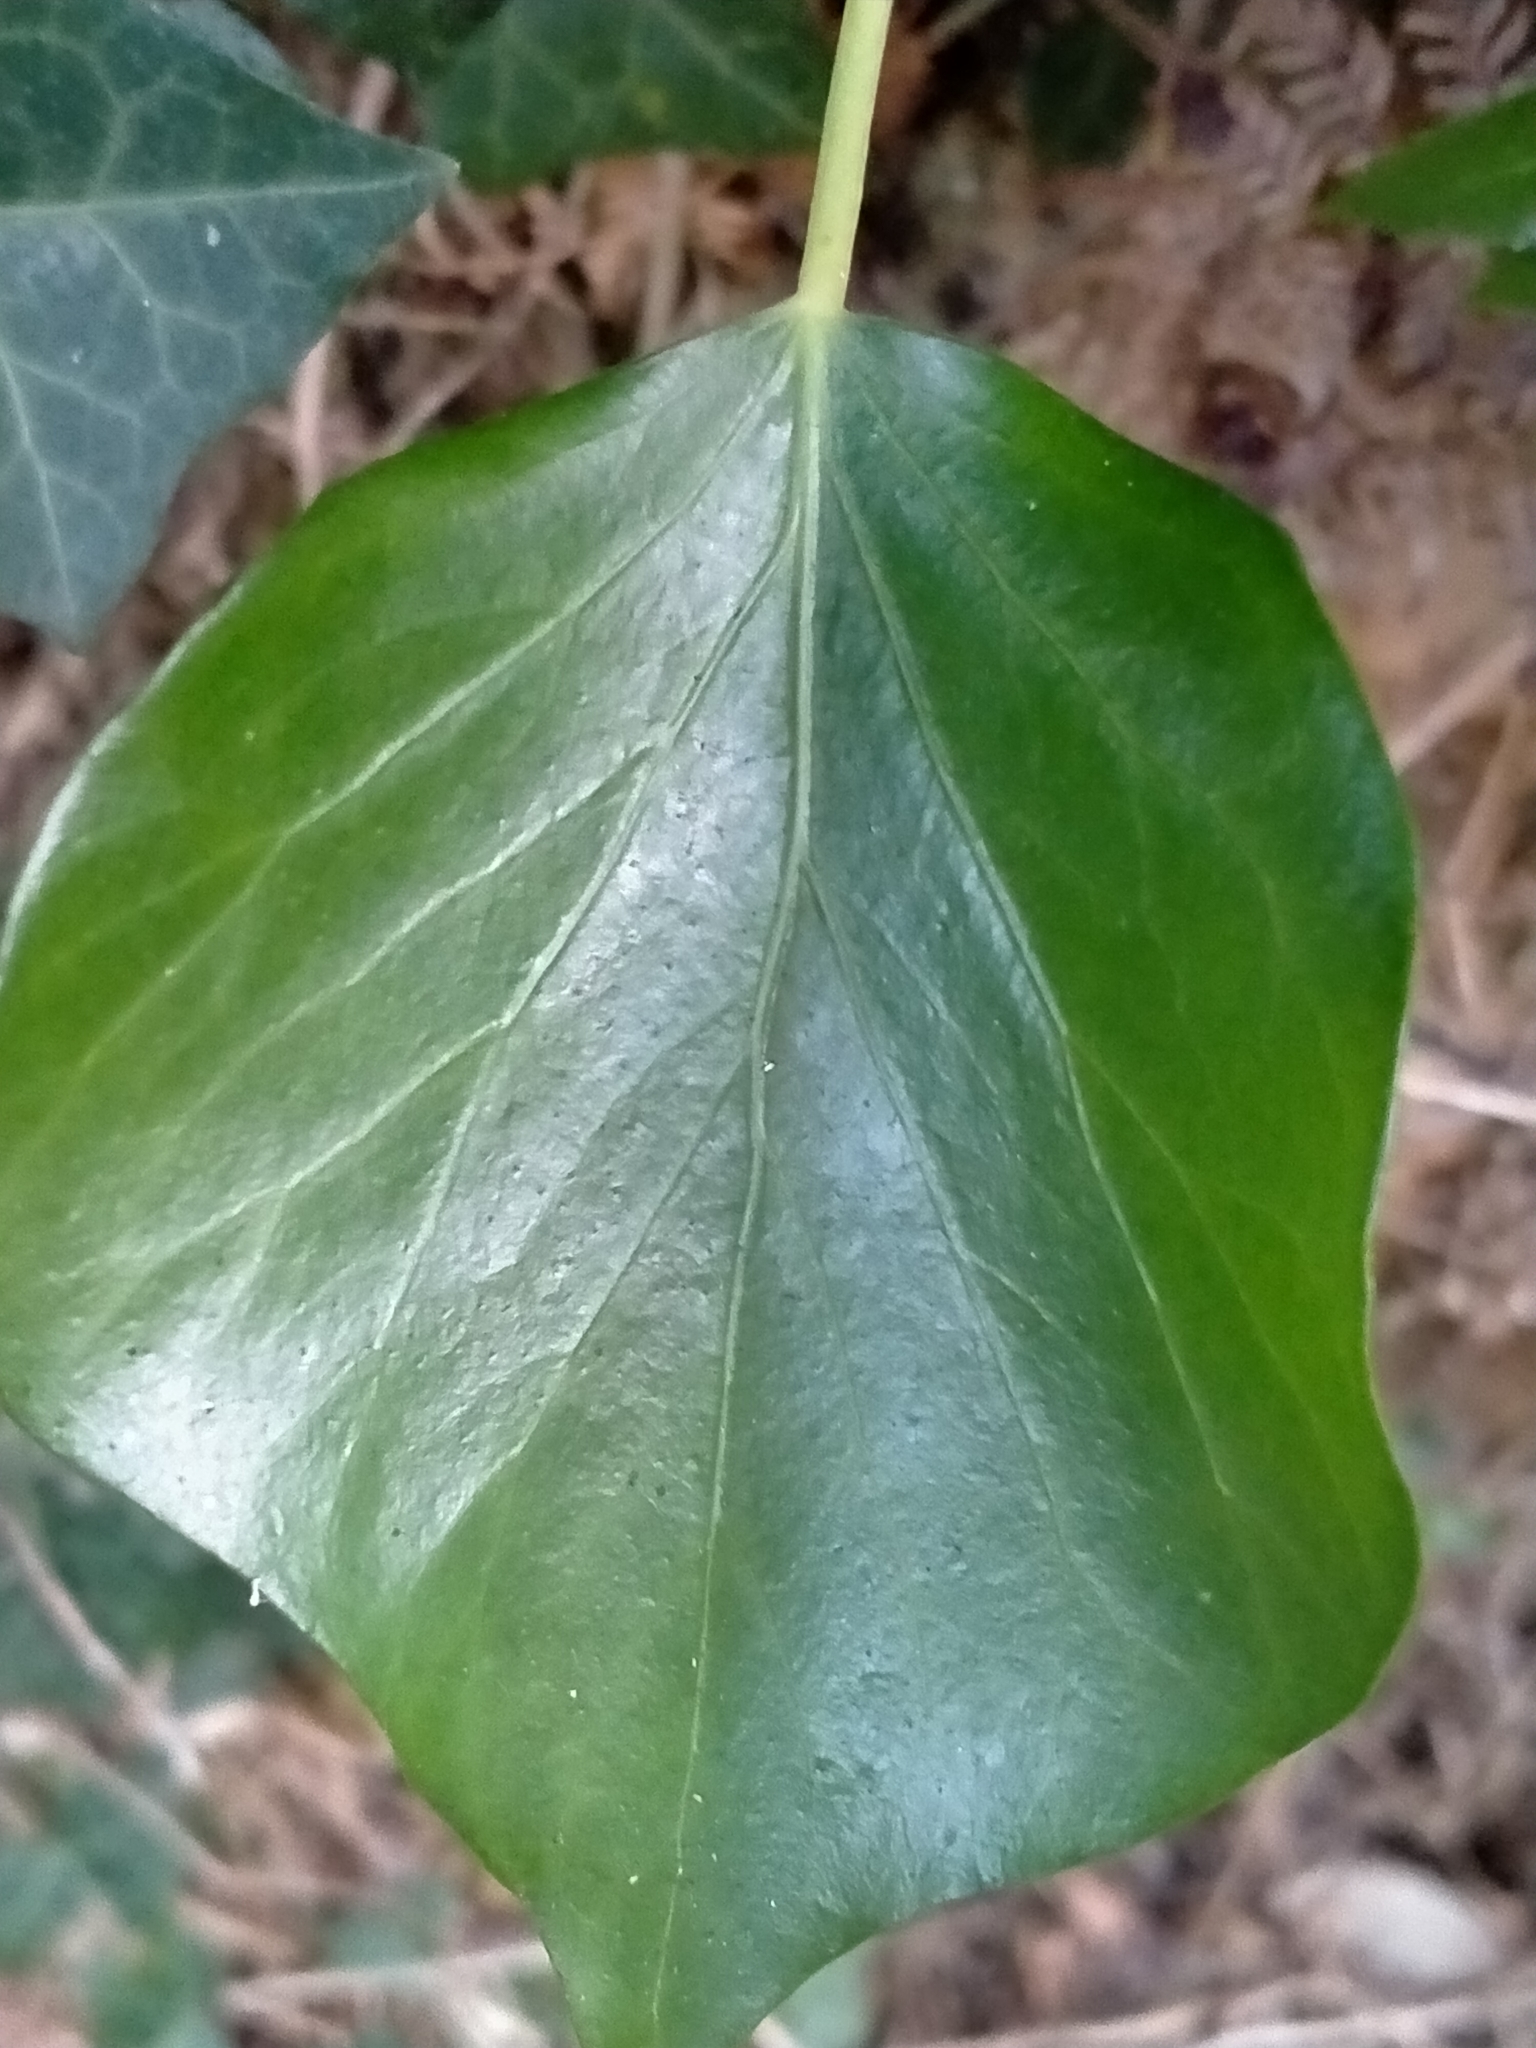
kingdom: Plantae
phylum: Tracheophyta
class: Magnoliopsida
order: Apiales
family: Araliaceae
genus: Hedera
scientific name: Hedera helix
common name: Ivy
